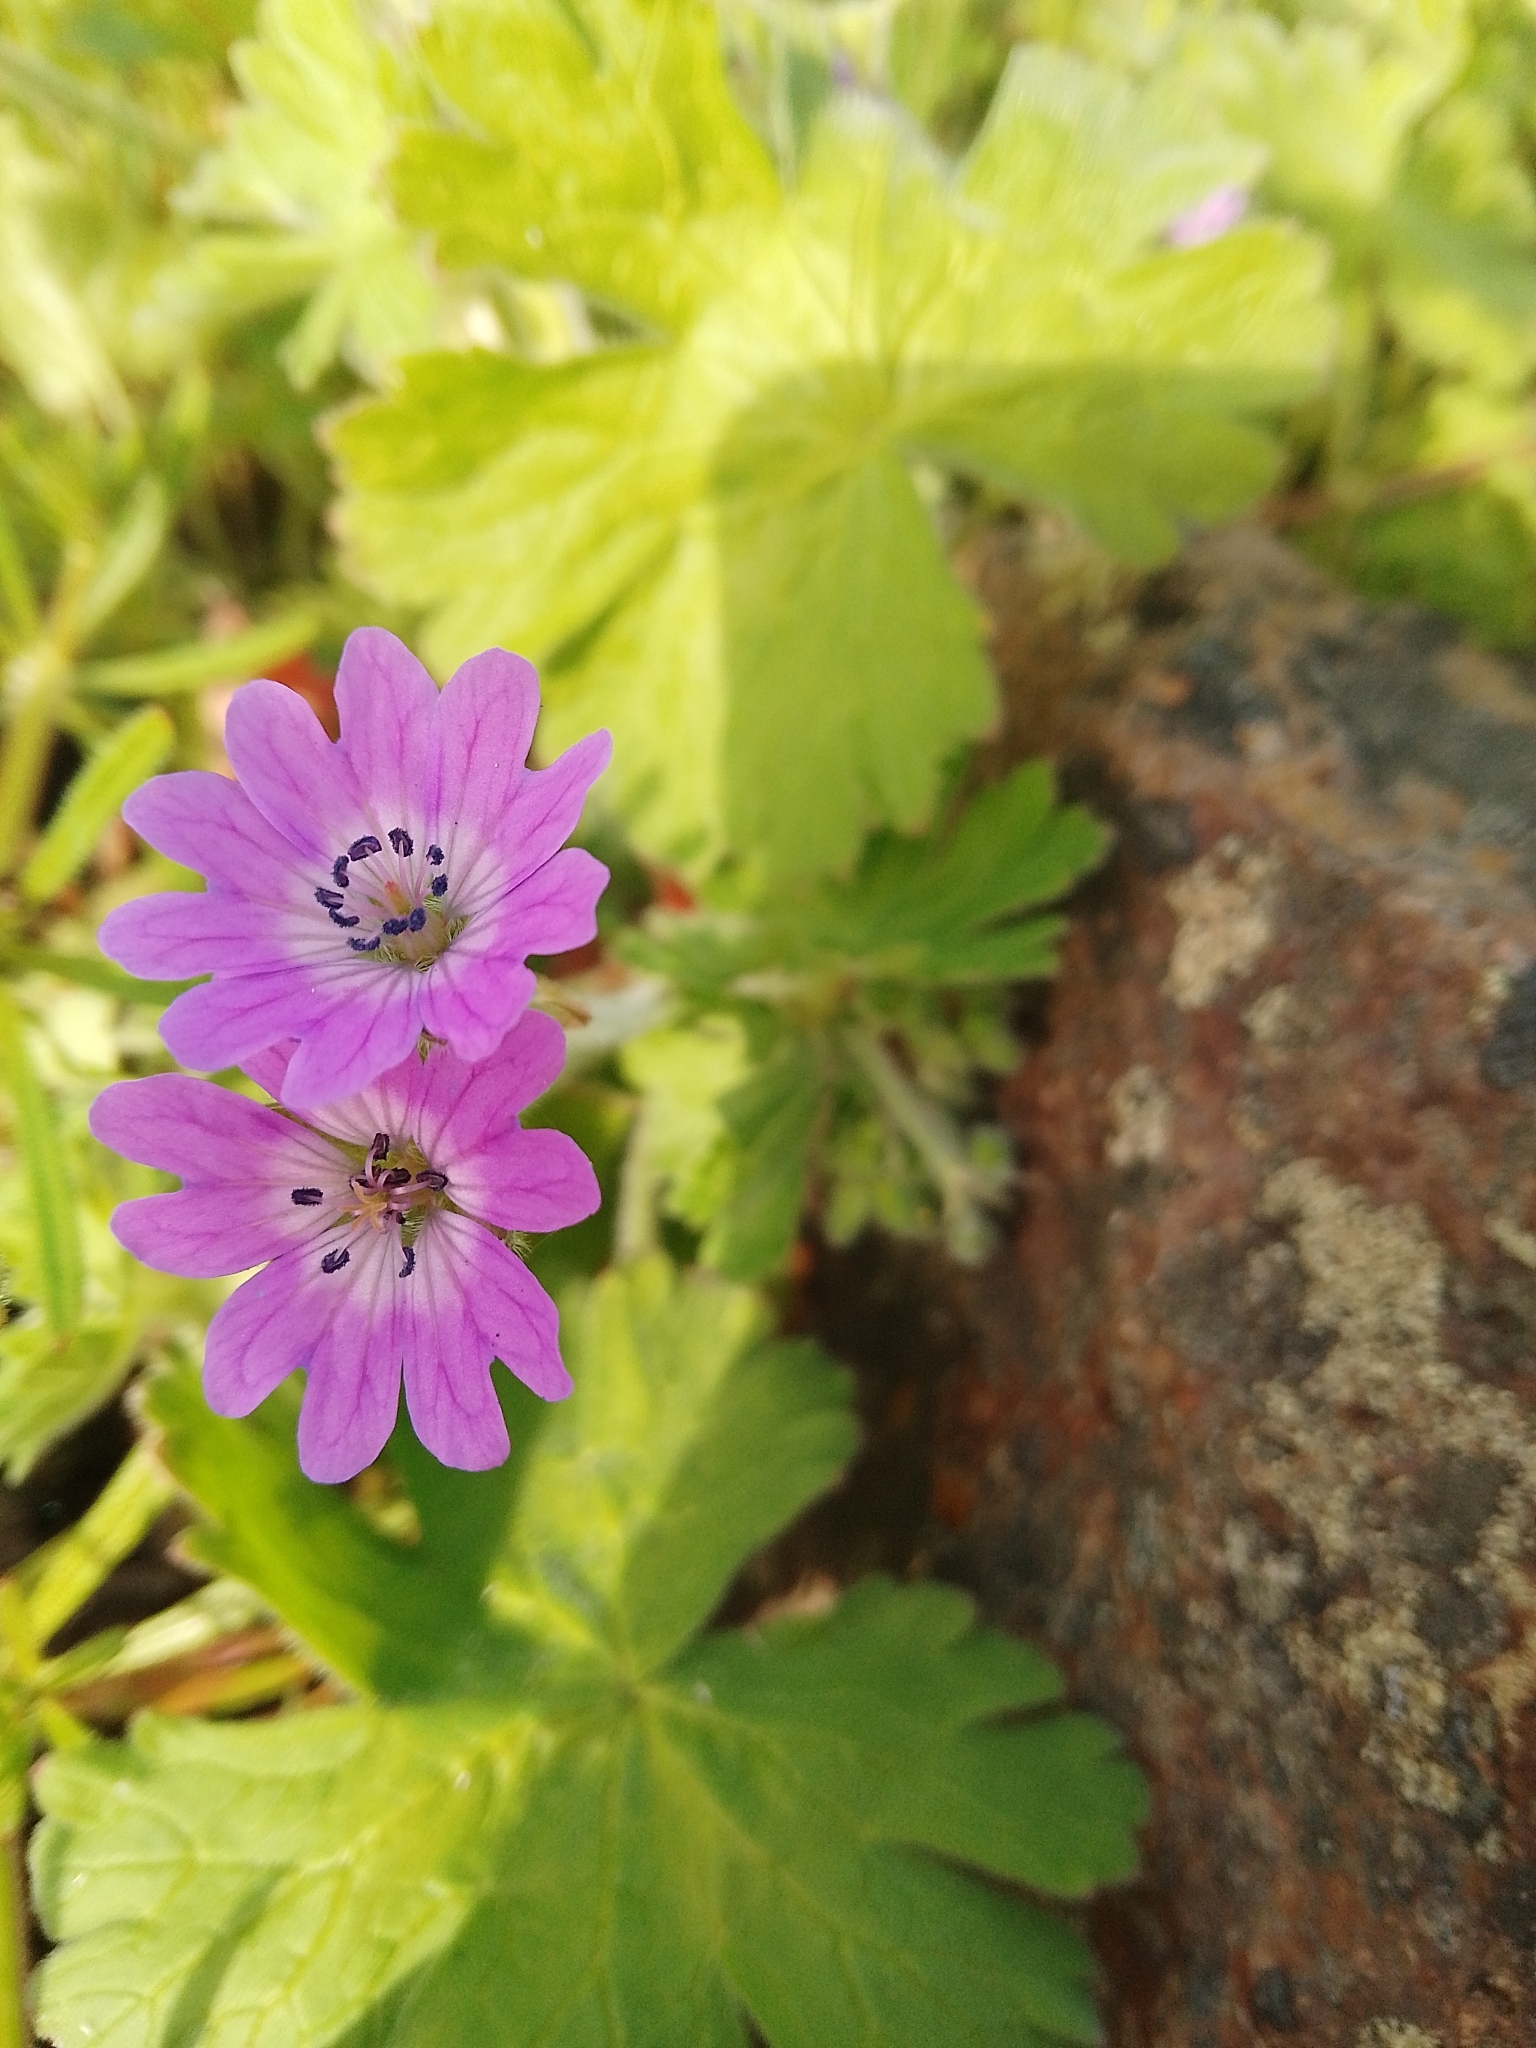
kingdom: Plantae
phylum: Tracheophyta
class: Magnoliopsida
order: Geraniales
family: Geraniaceae
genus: Geranium
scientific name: Geranium pyrenaicum
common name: Hedgerow crane's-bill
